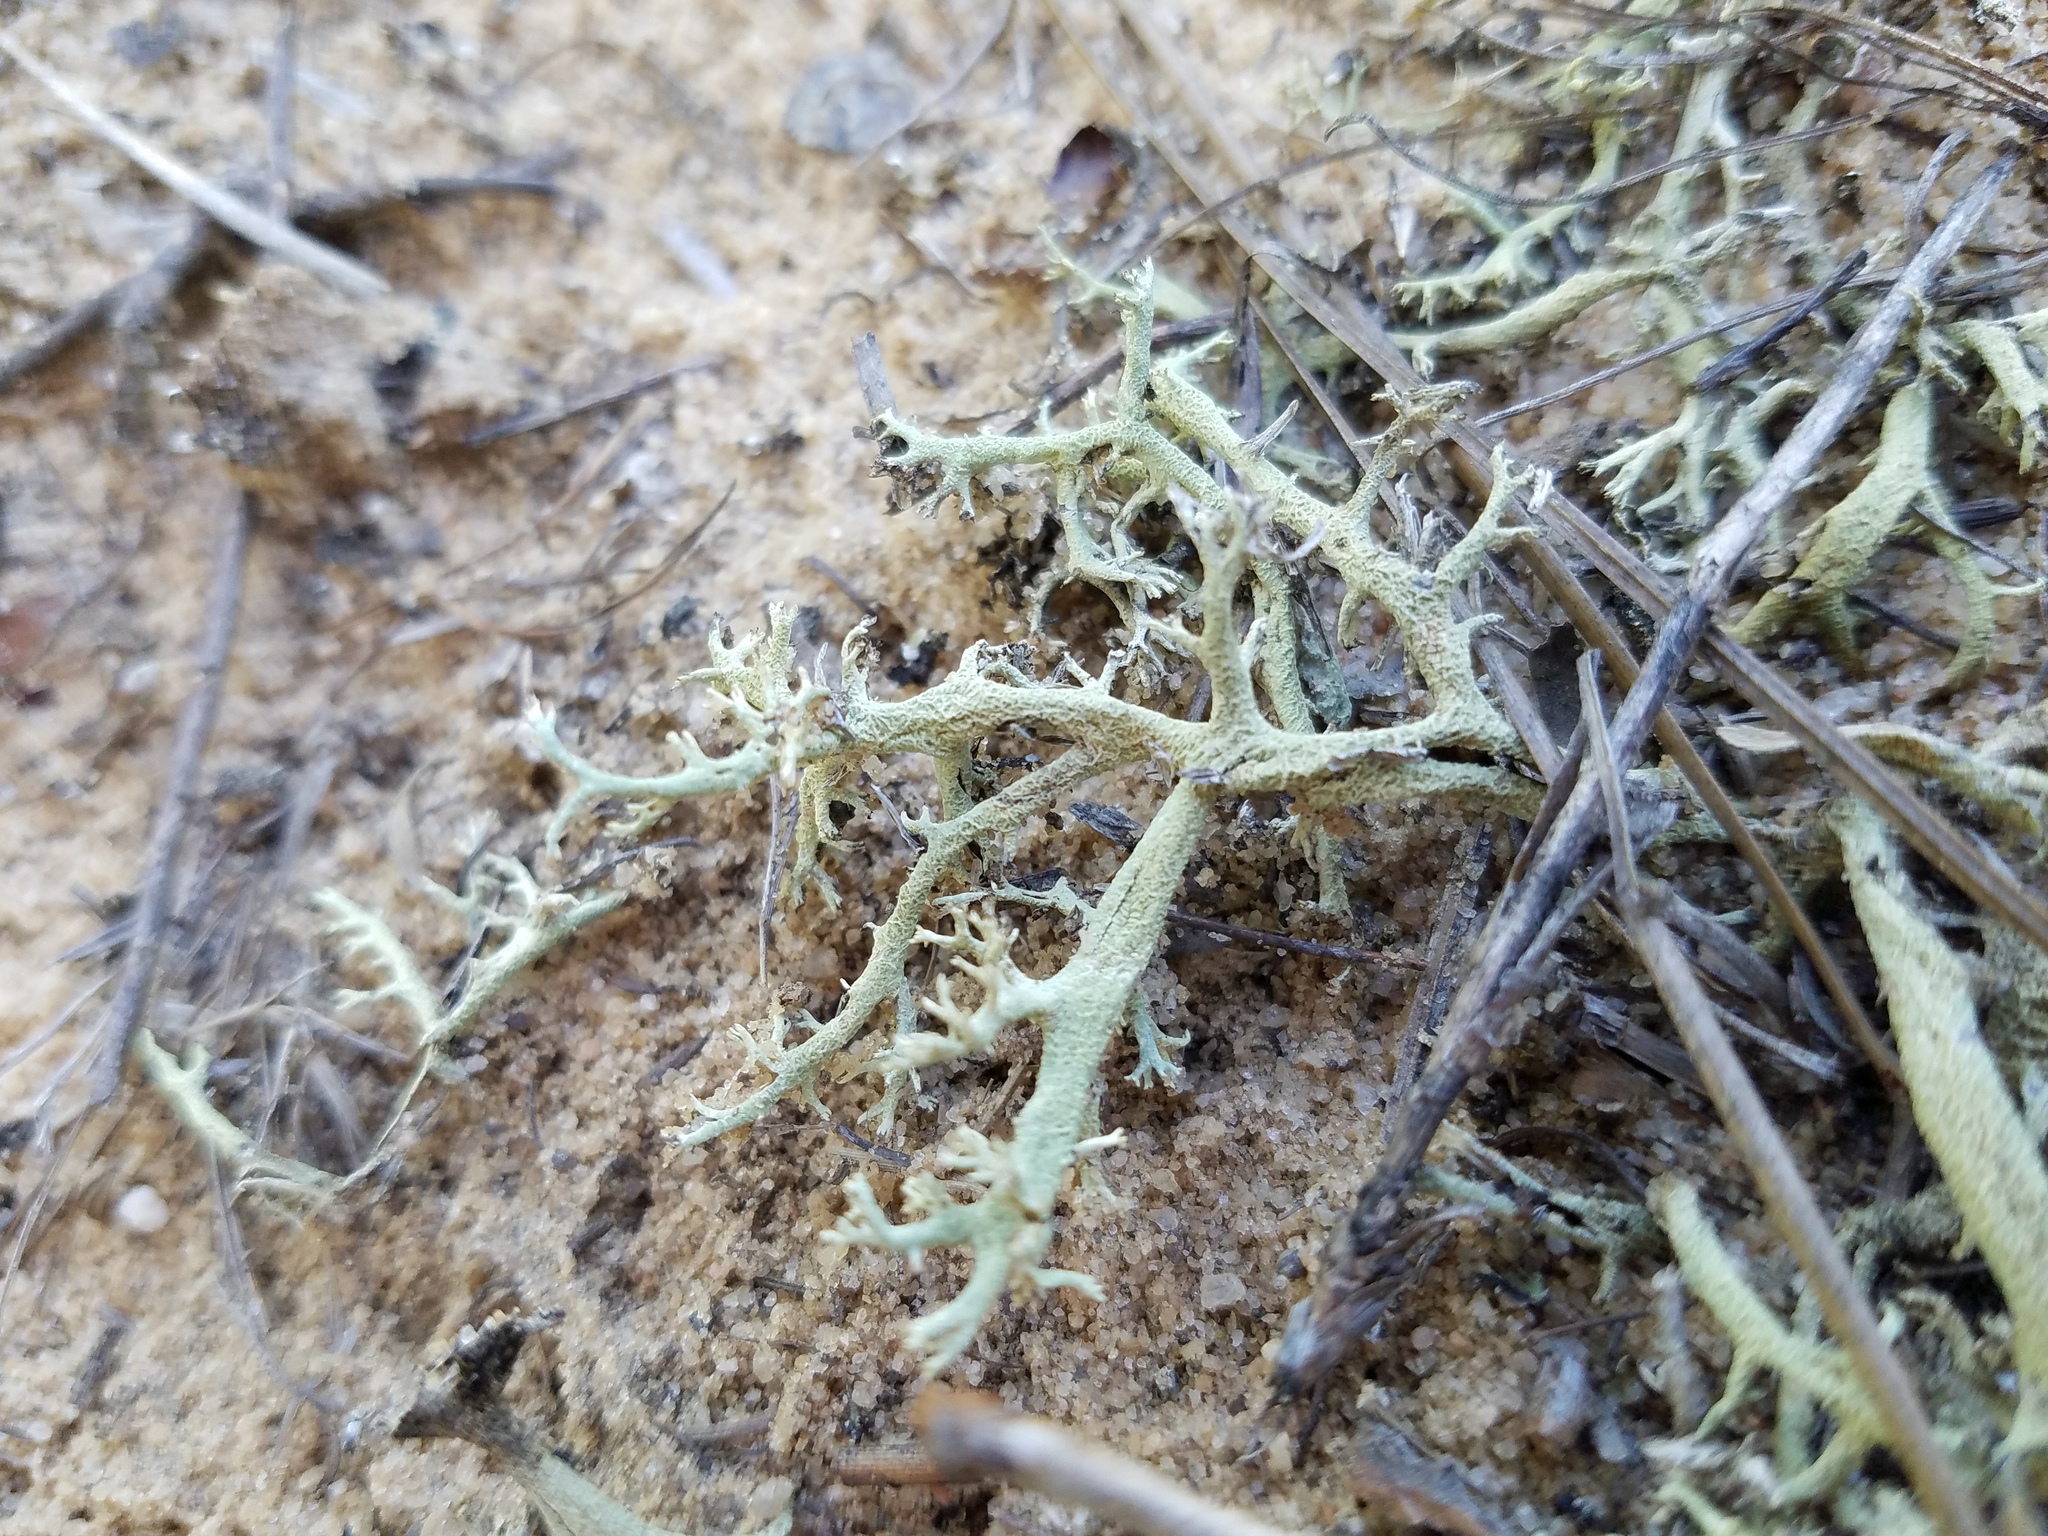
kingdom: Fungi
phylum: Ascomycota
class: Lecanoromycetes
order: Lecanorales
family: Cladoniaceae
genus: Cladonia
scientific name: Cladonia leporina
